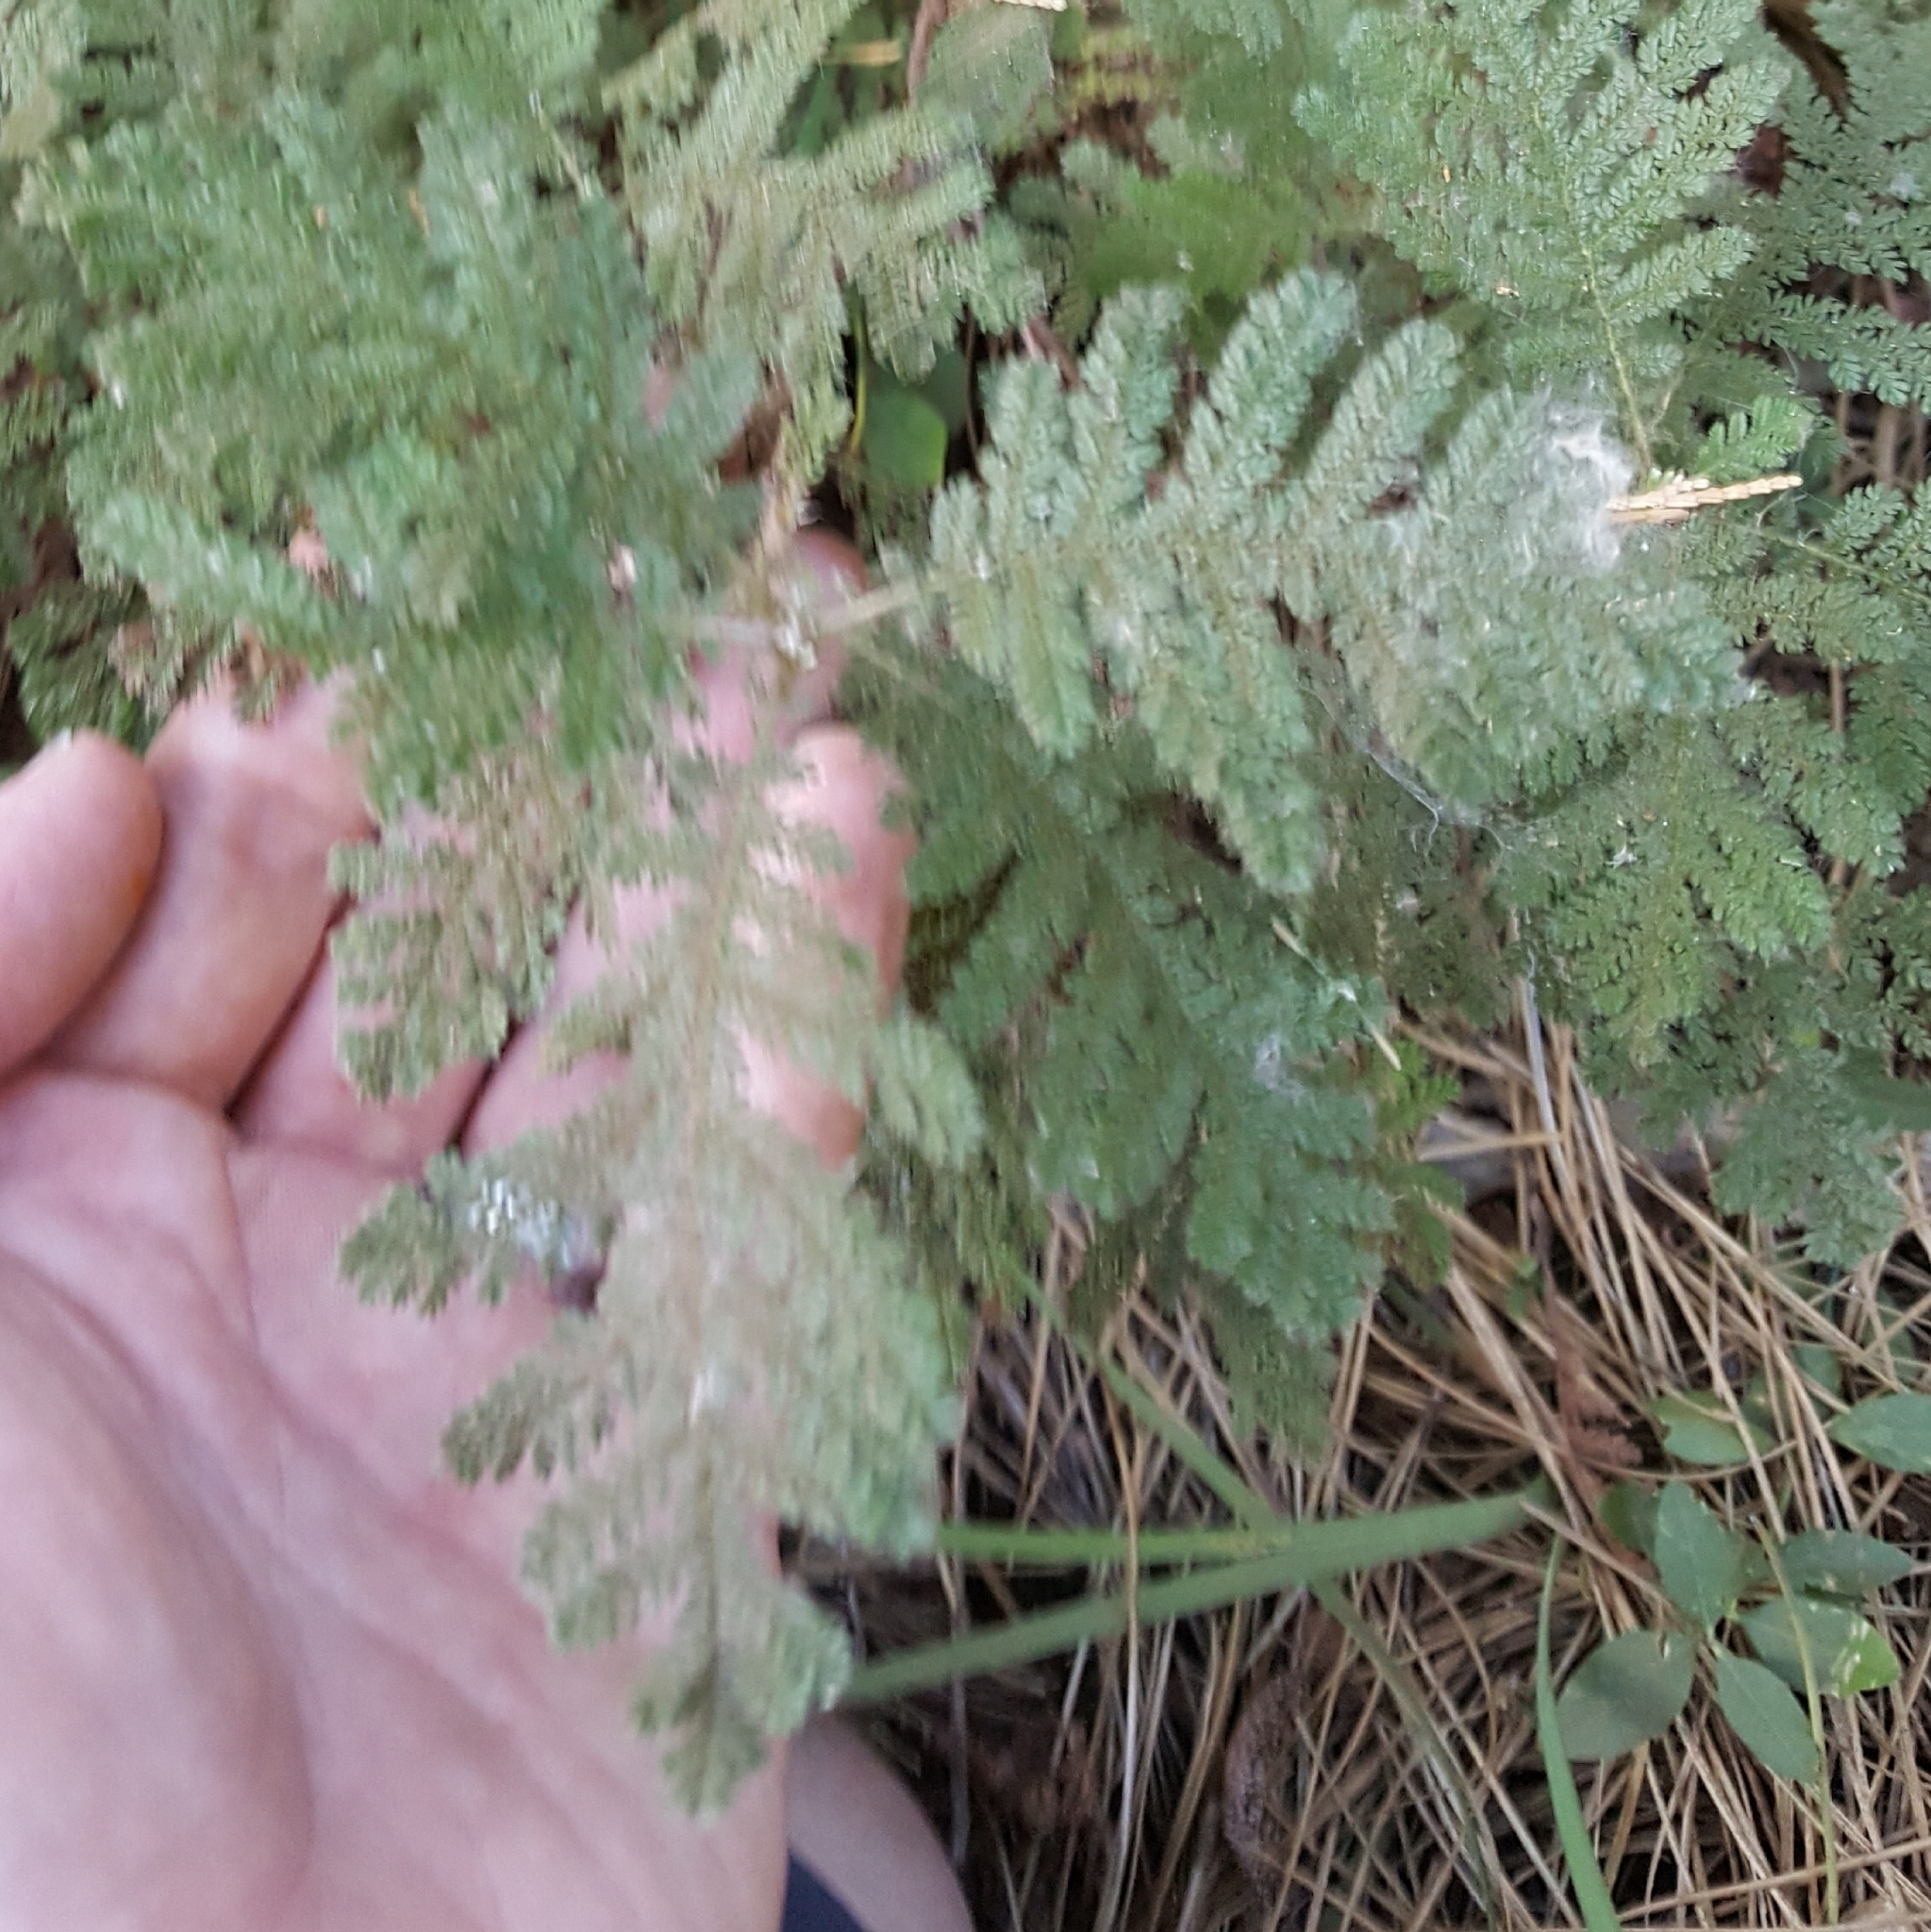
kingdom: Plantae
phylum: Tracheophyta
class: Magnoliopsida
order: Rosales
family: Rosaceae
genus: Chamaebatia
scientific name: Chamaebatia foliolosa
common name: Mountain misery
